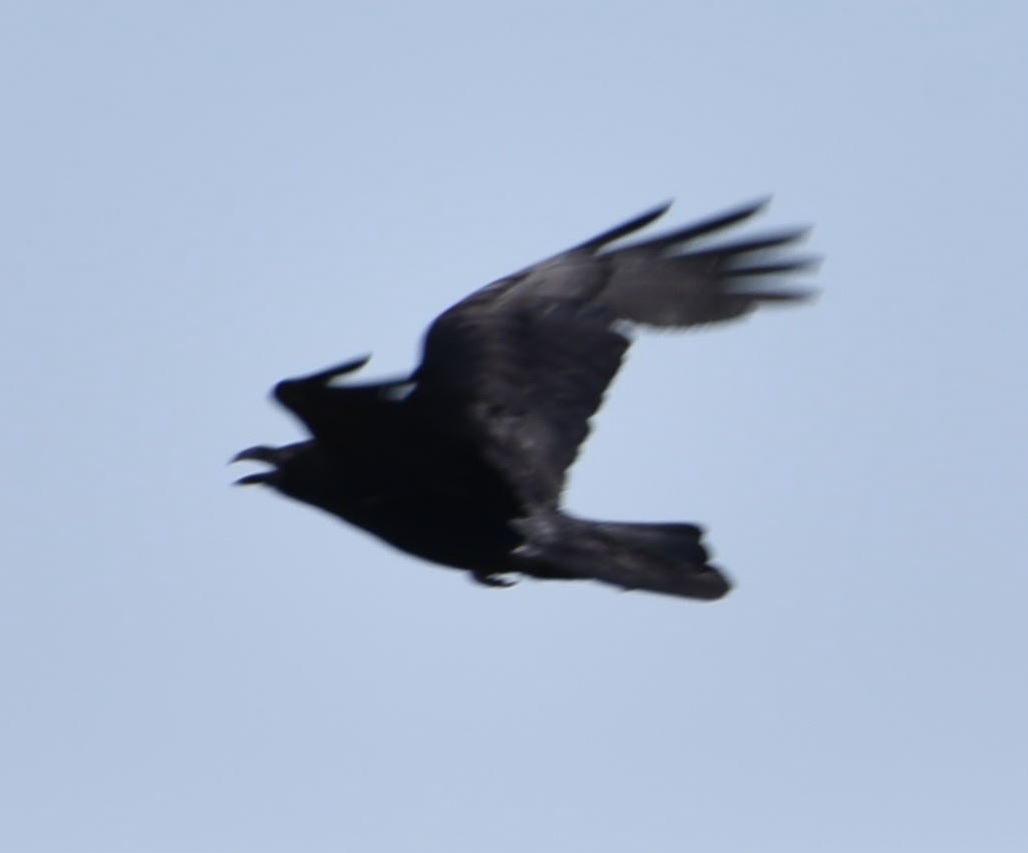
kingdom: Animalia
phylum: Chordata
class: Aves
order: Passeriformes
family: Corvidae
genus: Corvus
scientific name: Corvus corax
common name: Common raven
